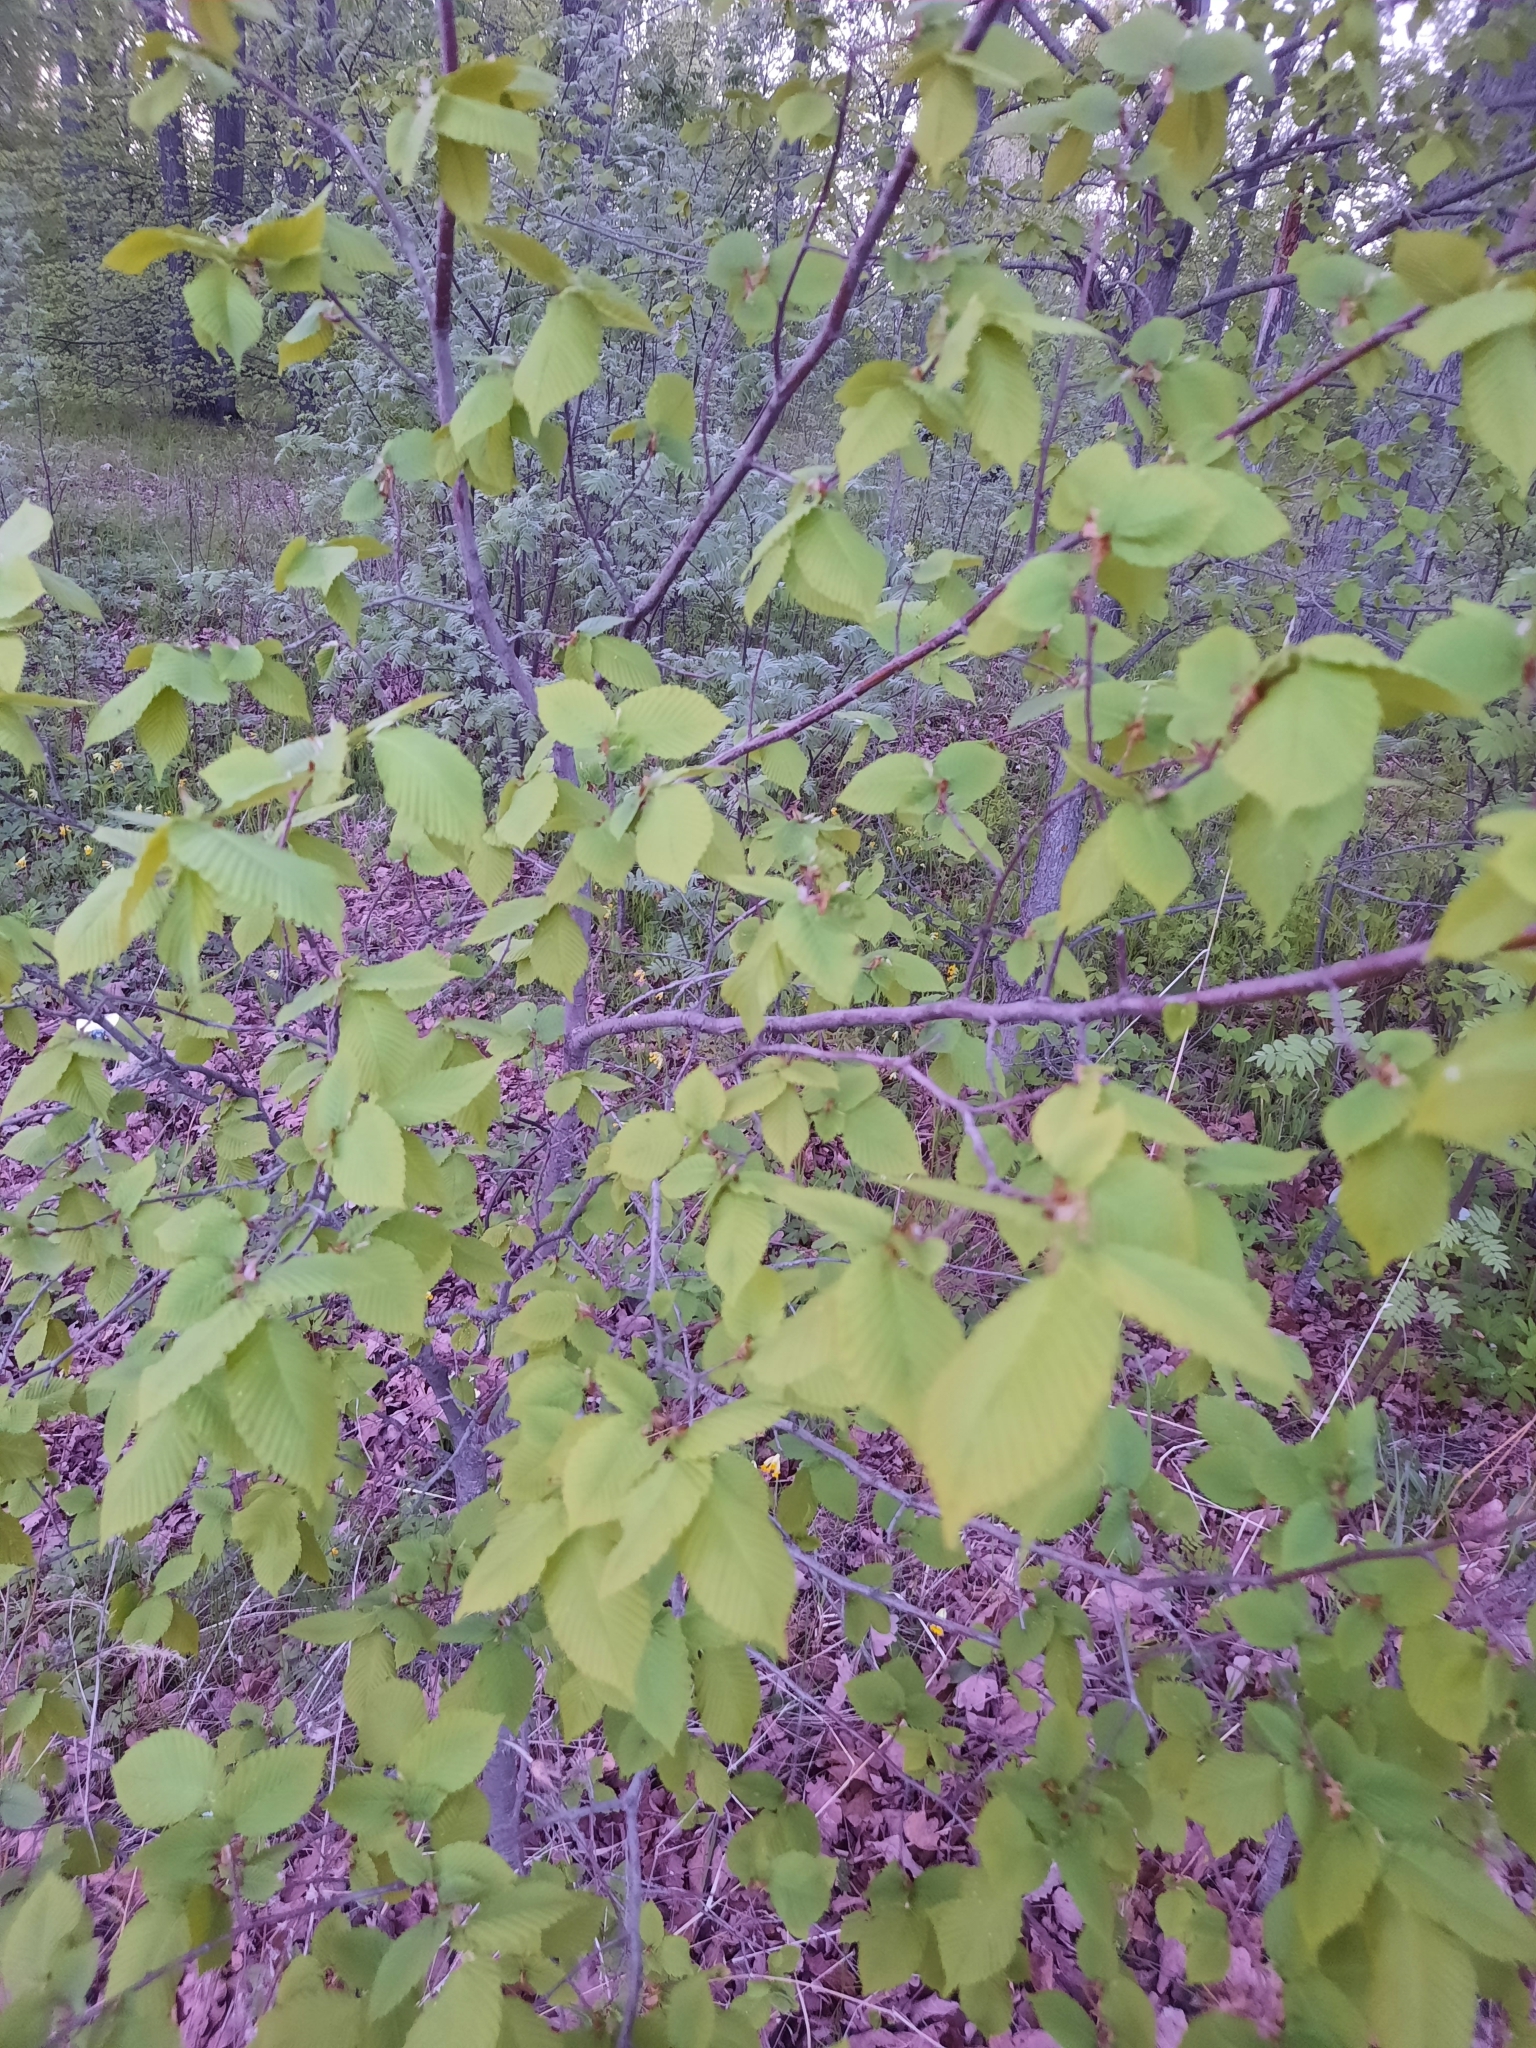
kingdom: Plantae
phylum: Tracheophyta
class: Magnoliopsida
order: Rosales
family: Ulmaceae
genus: Ulmus
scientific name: Ulmus laevis
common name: European white-elm
